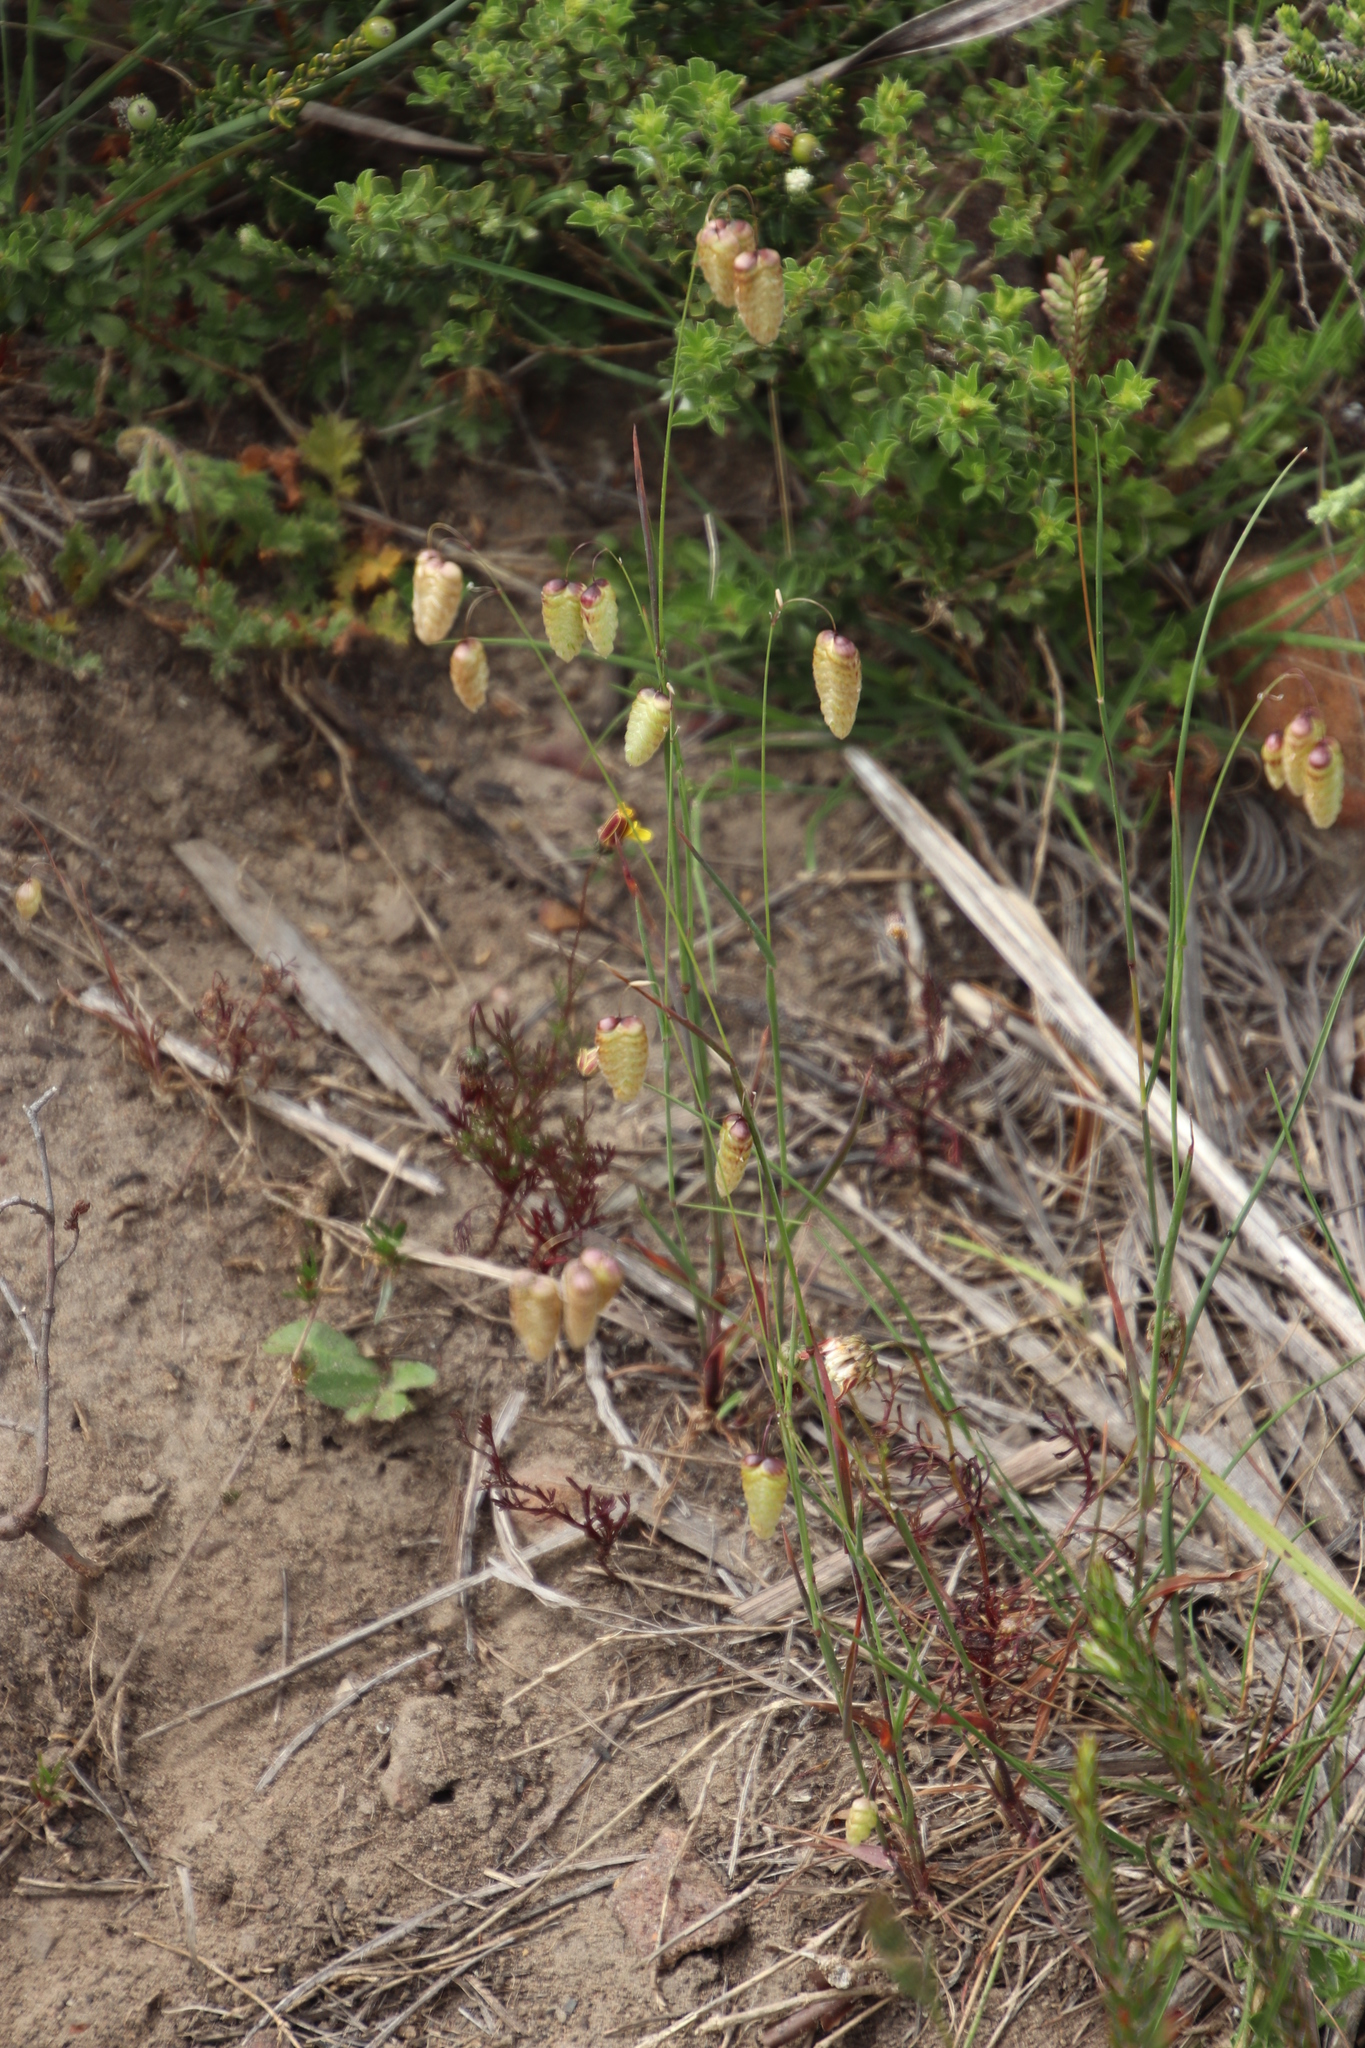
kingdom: Plantae
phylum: Tracheophyta
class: Liliopsida
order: Poales
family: Poaceae
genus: Briza
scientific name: Briza maxima
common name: Big quakinggrass
